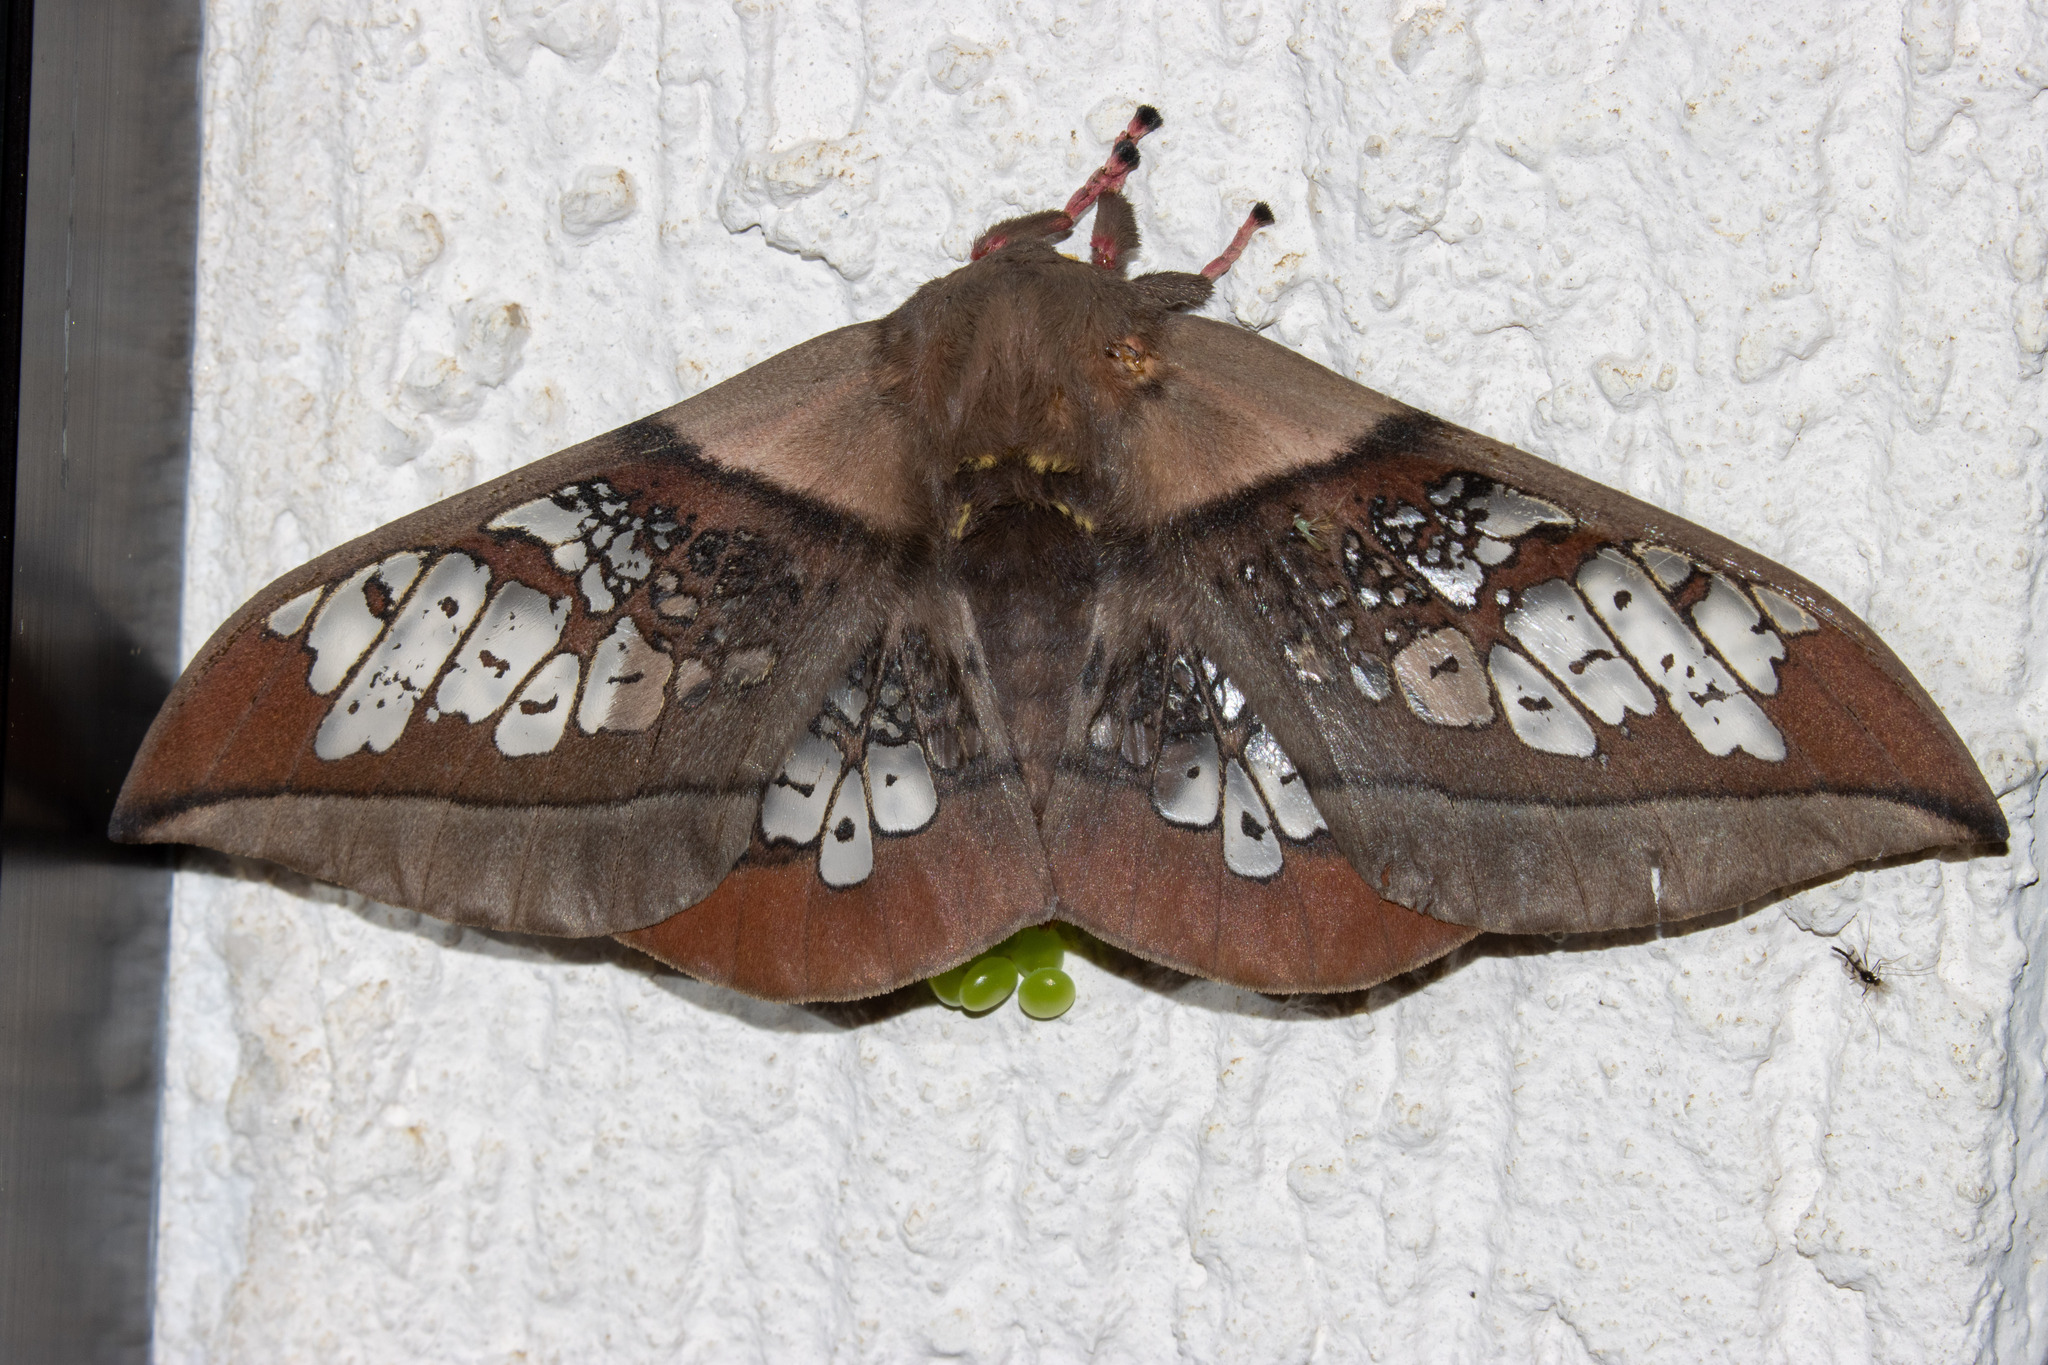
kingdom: Animalia
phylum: Arthropoda
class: Insecta
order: Lepidoptera
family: Saturniidae
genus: Neorcarnegia
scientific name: Neorcarnegia basirei
